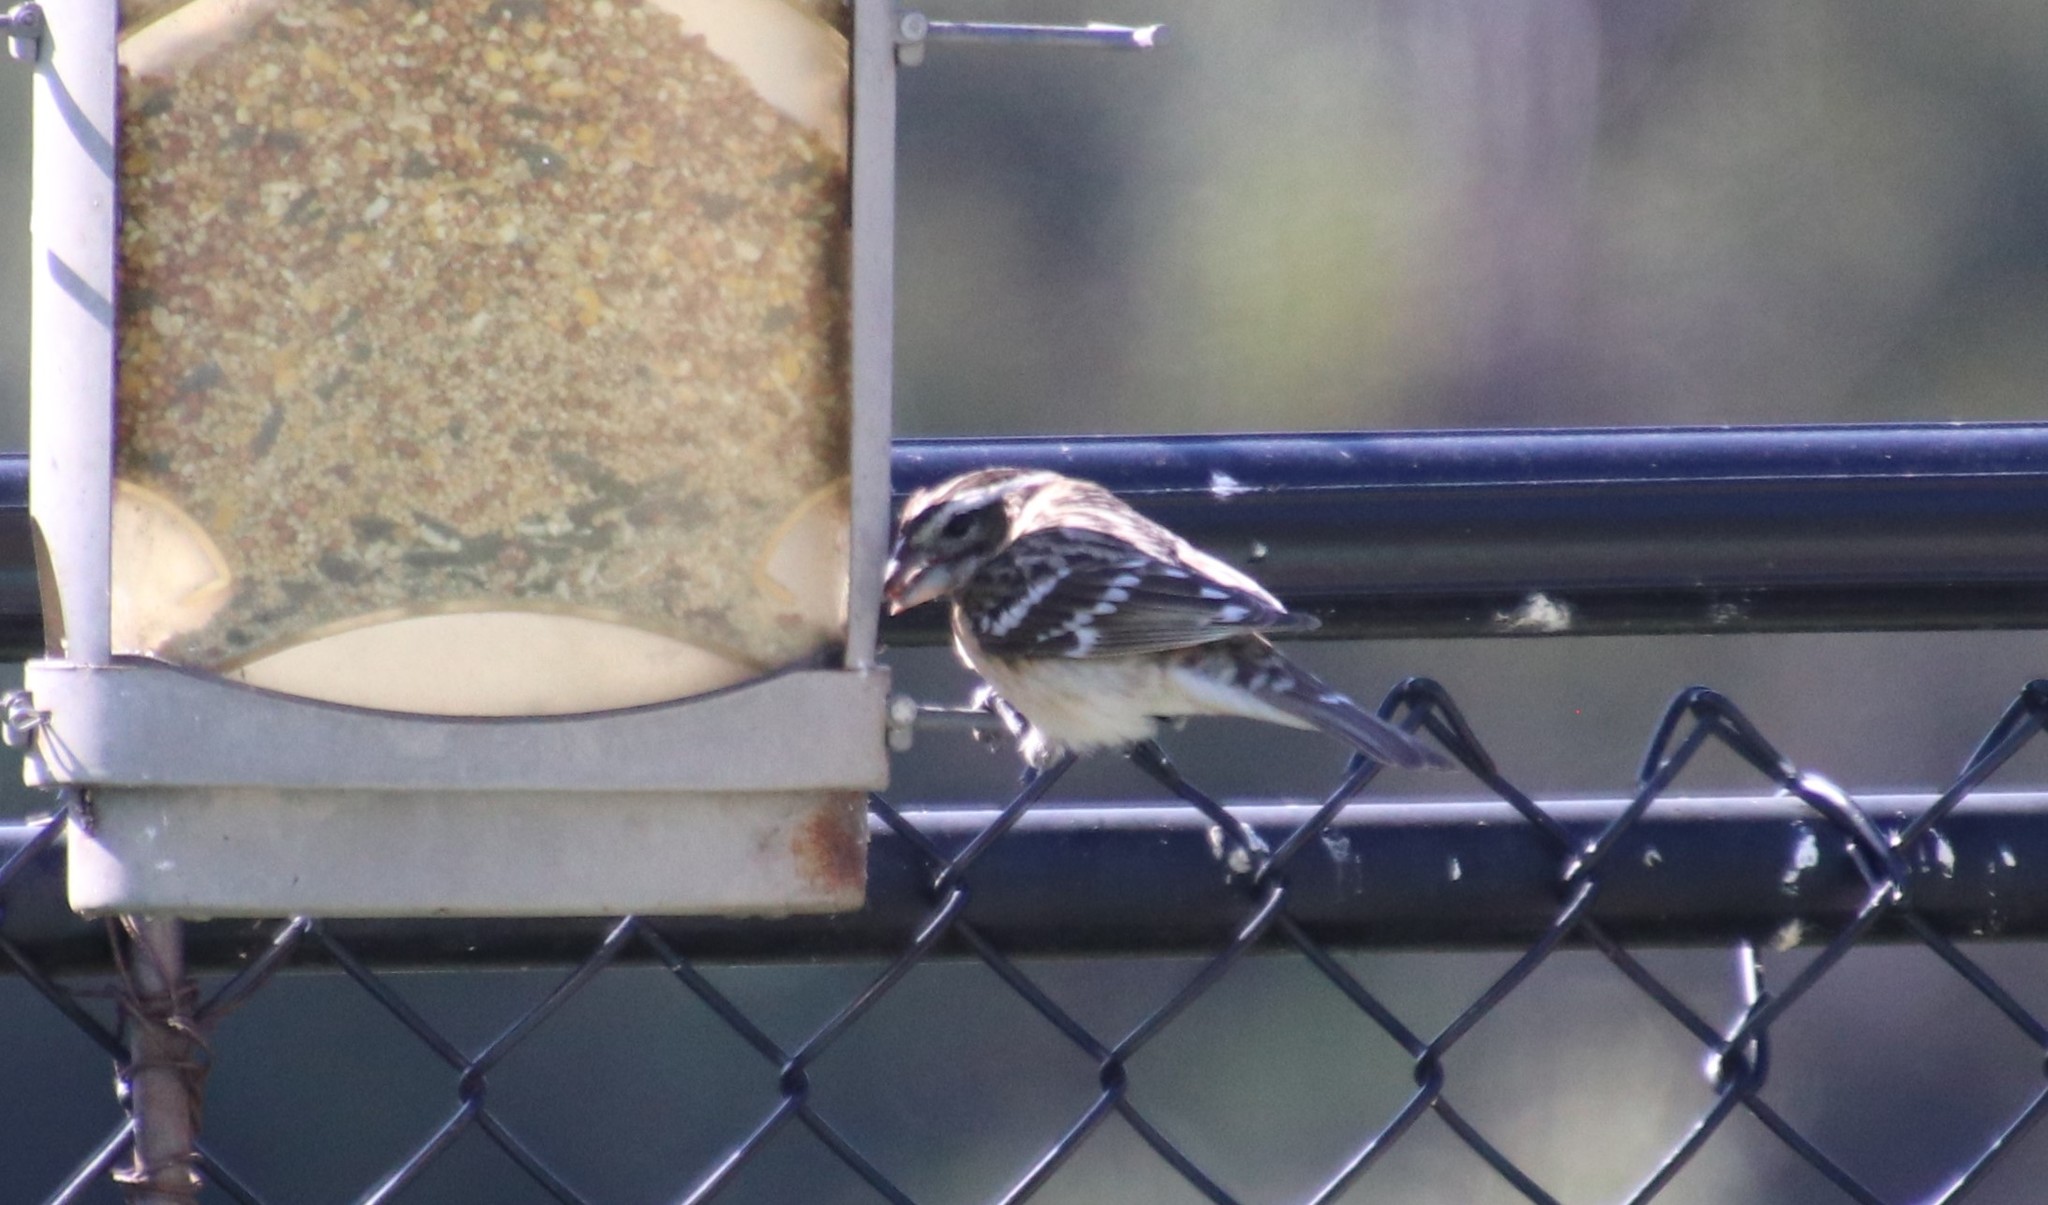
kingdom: Animalia
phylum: Chordata
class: Aves
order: Passeriformes
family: Cardinalidae
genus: Pheucticus
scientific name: Pheucticus melanocephalus
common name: Black-headed grosbeak
